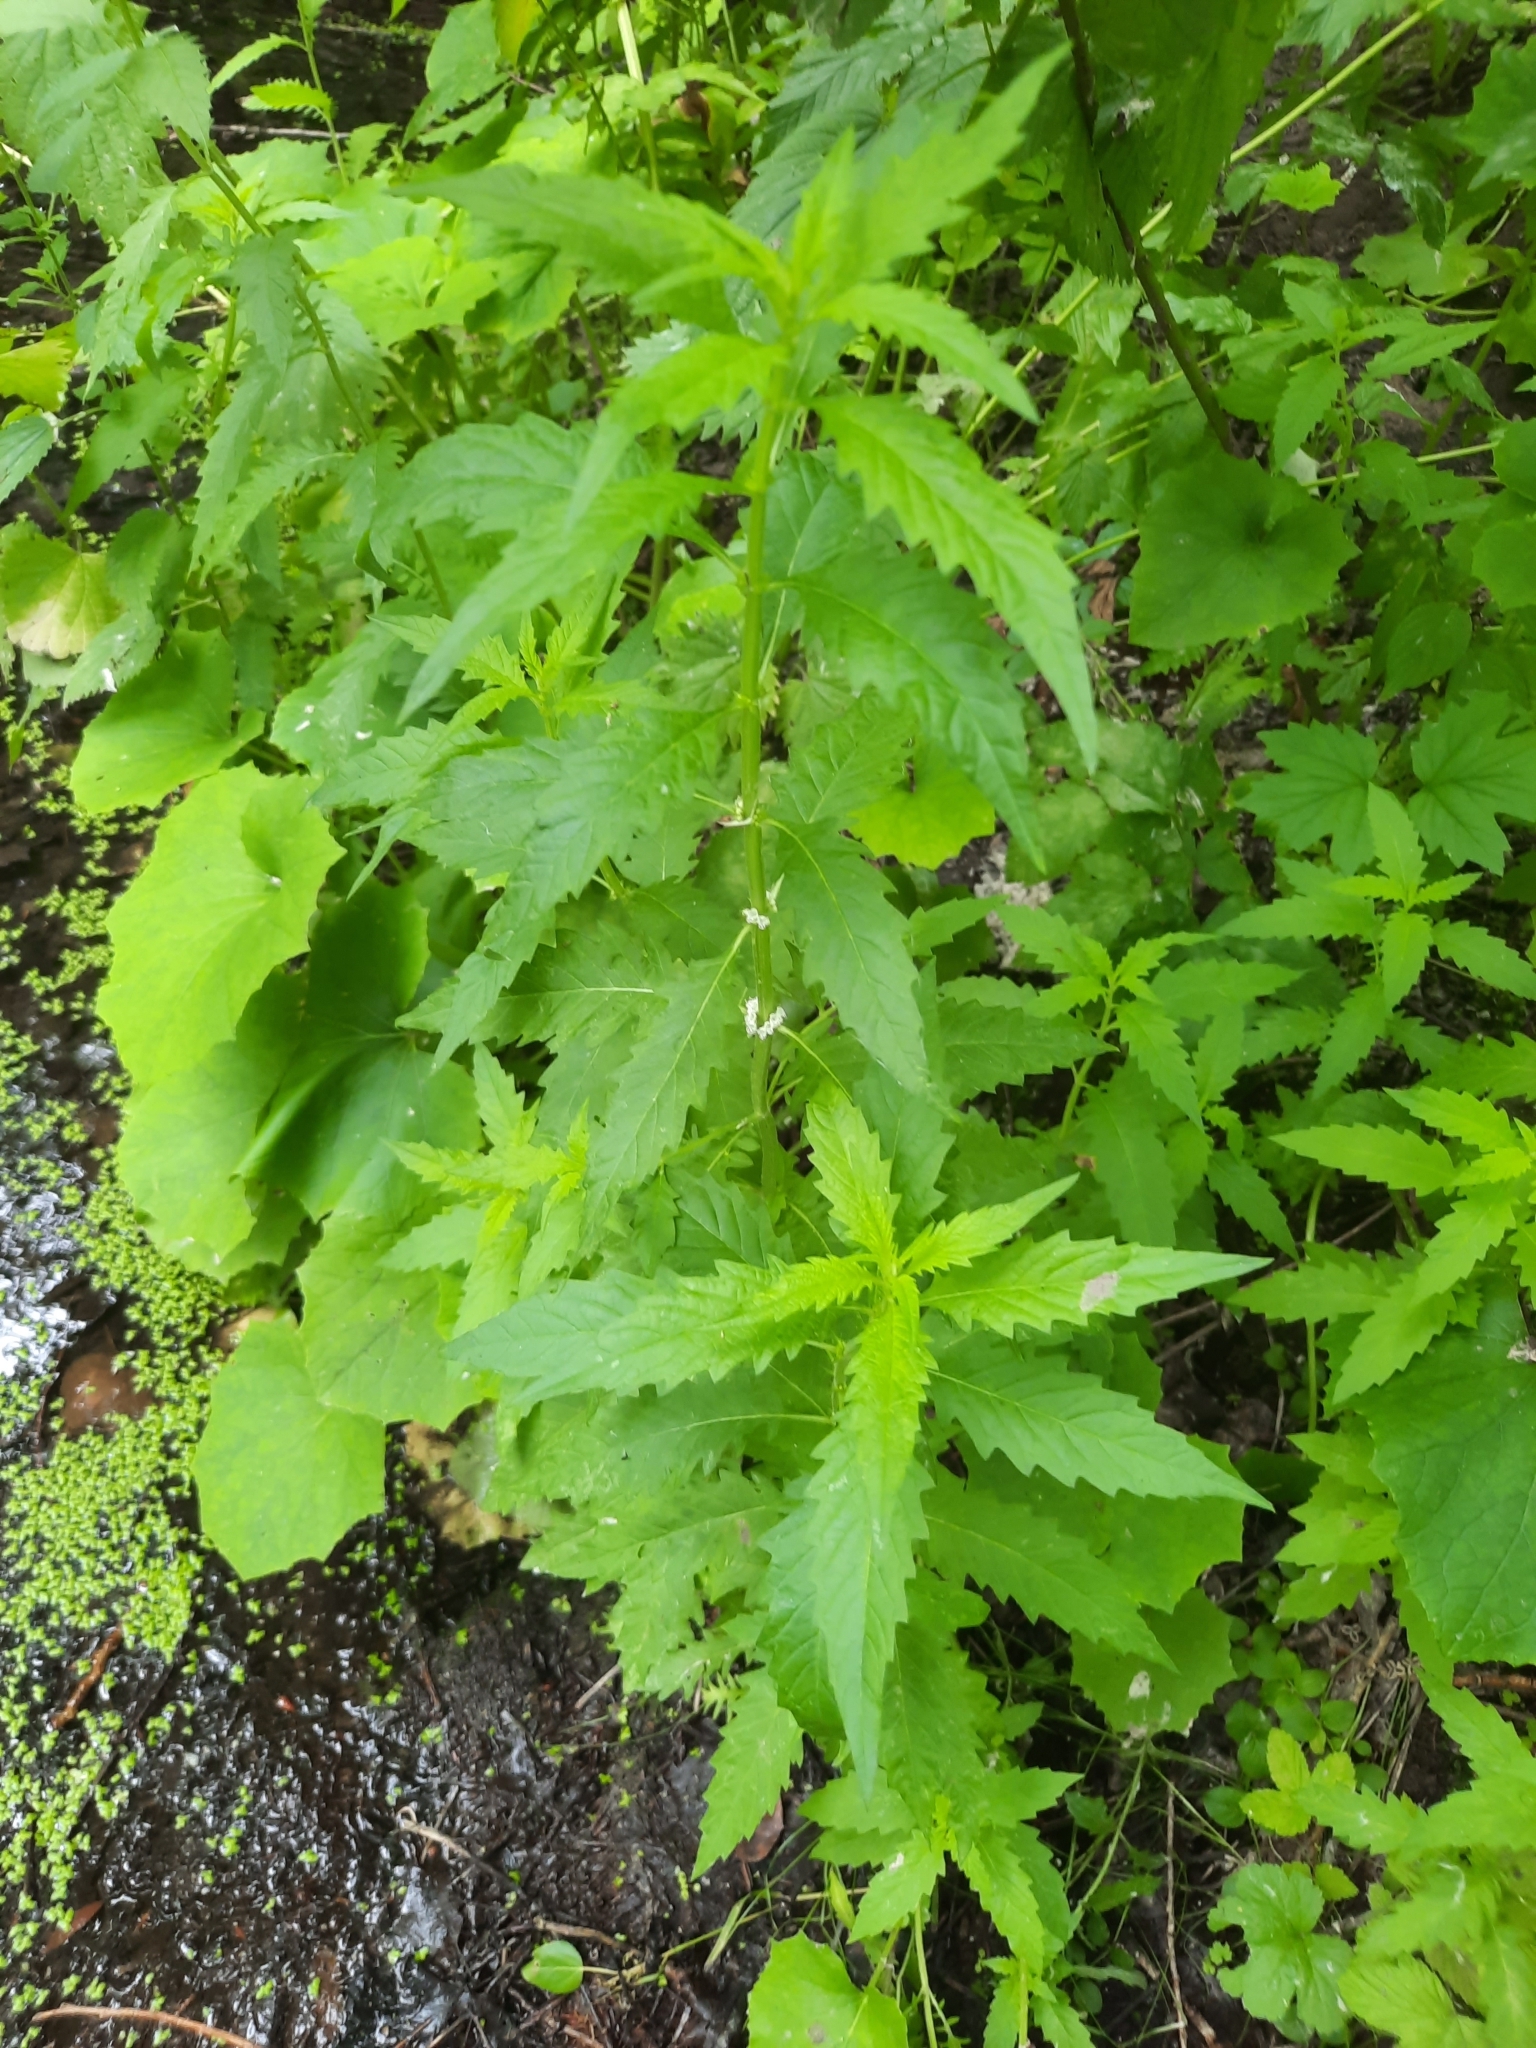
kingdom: Plantae
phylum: Tracheophyta
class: Magnoliopsida
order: Lamiales
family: Lamiaceae
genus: Lycopus
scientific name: Lycopus europaeus
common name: European bugleweed
